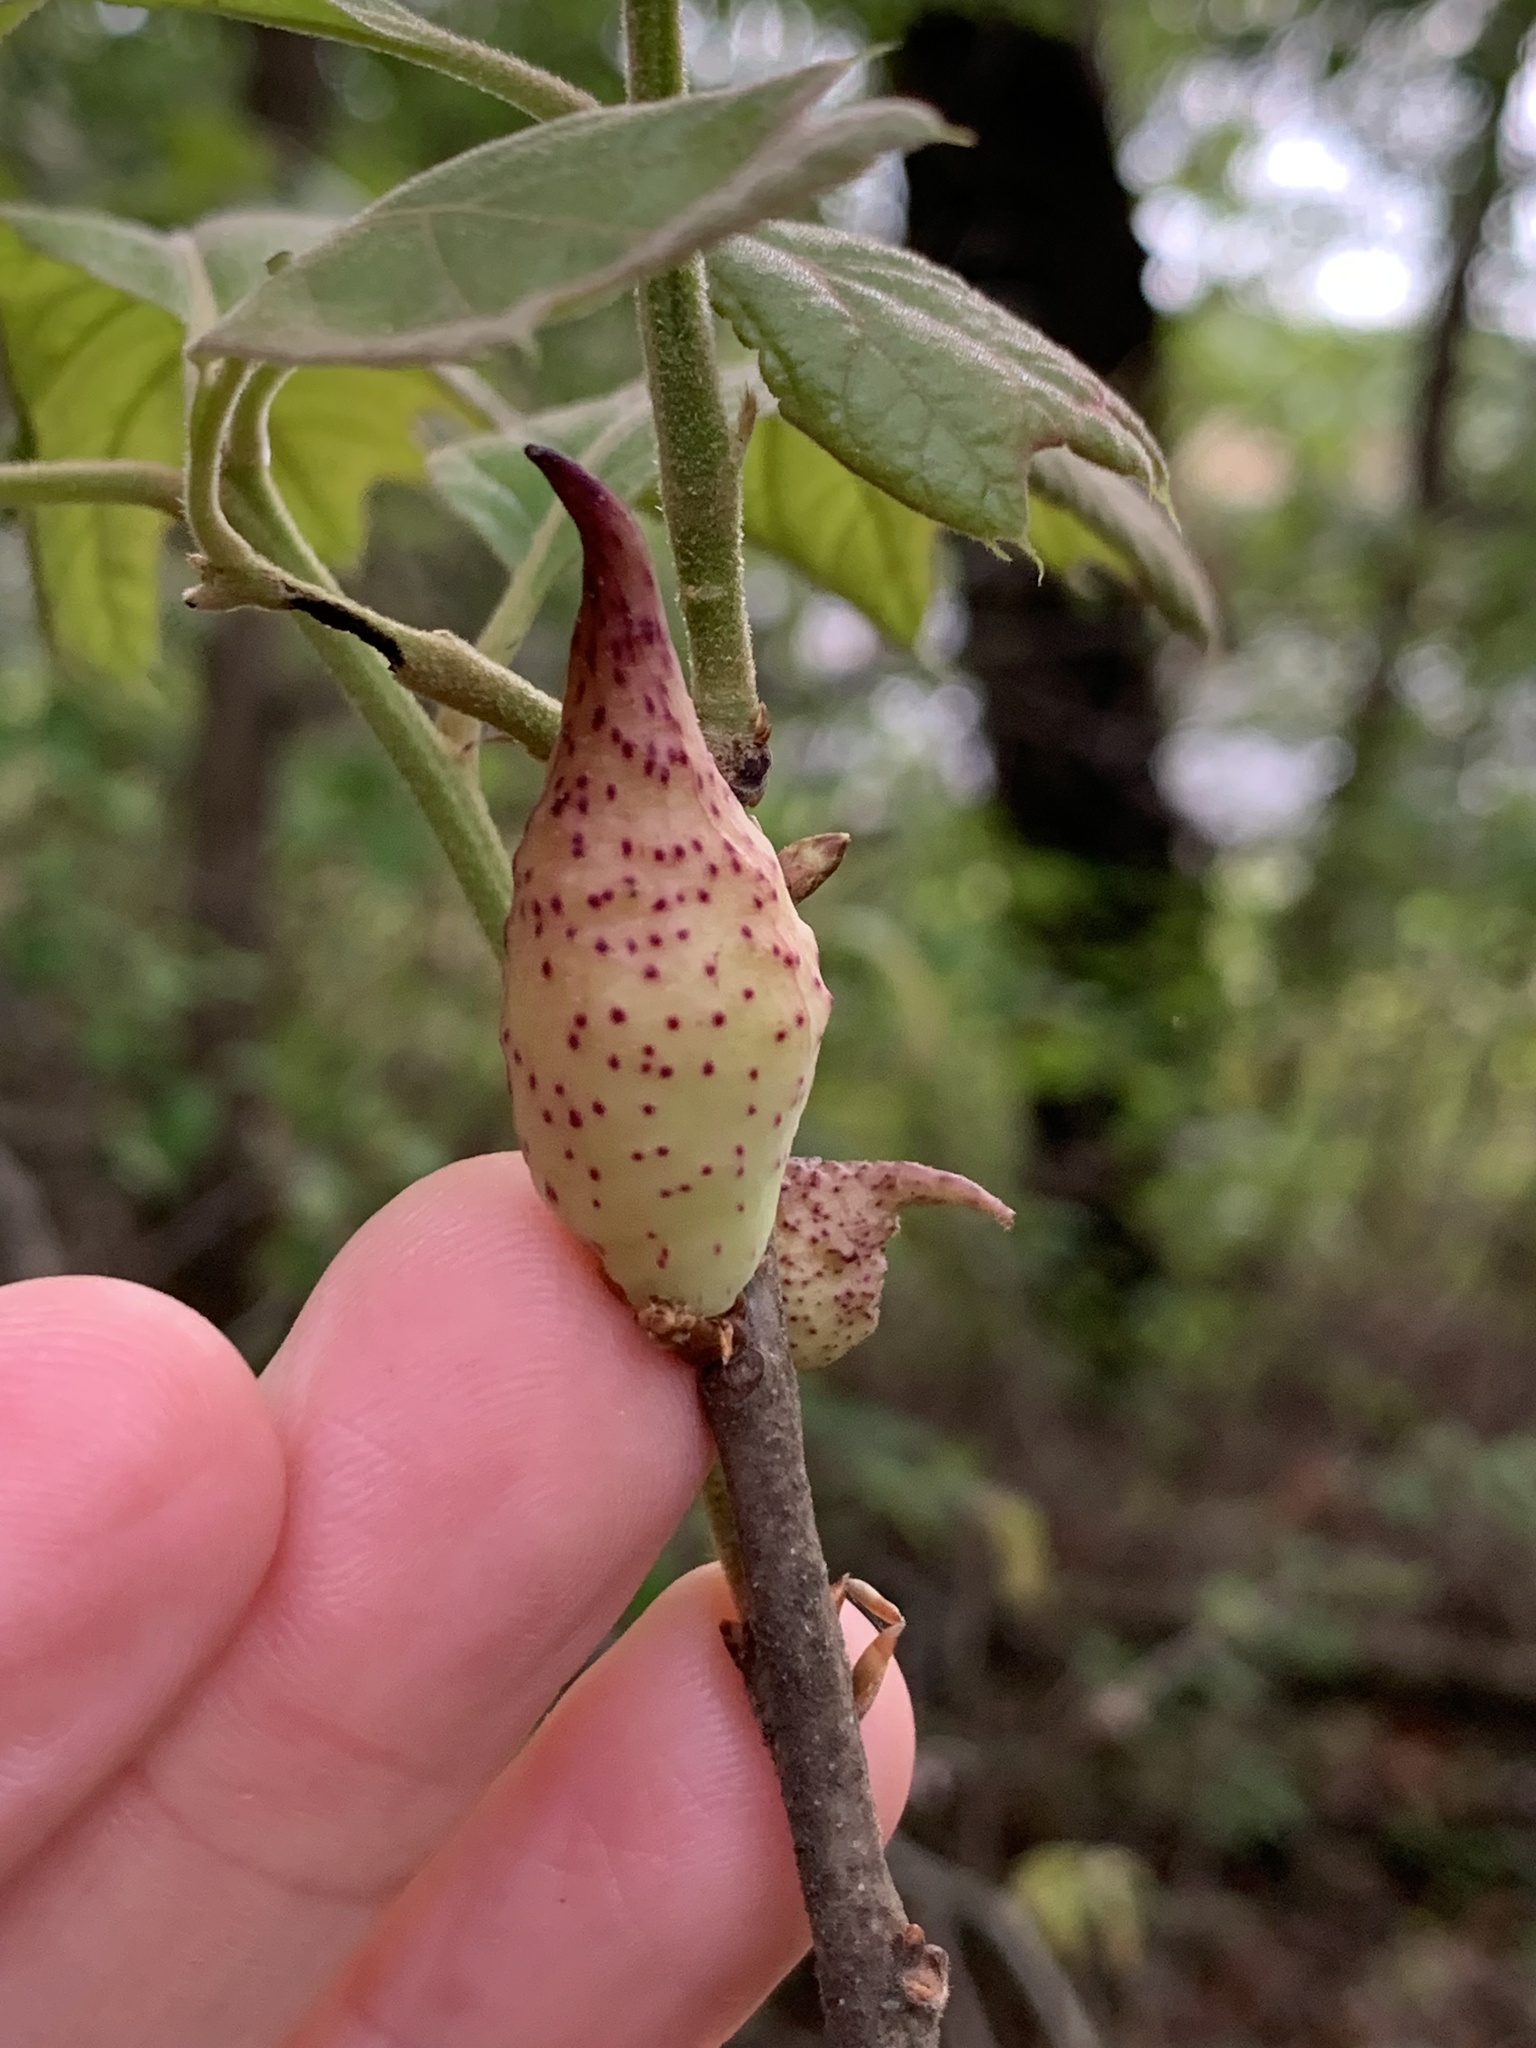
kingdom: Animalia
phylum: Arthropoda
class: Insecta
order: Hymenoptera
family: Cynipidae
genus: Amphibolips
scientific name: Amphibolips
